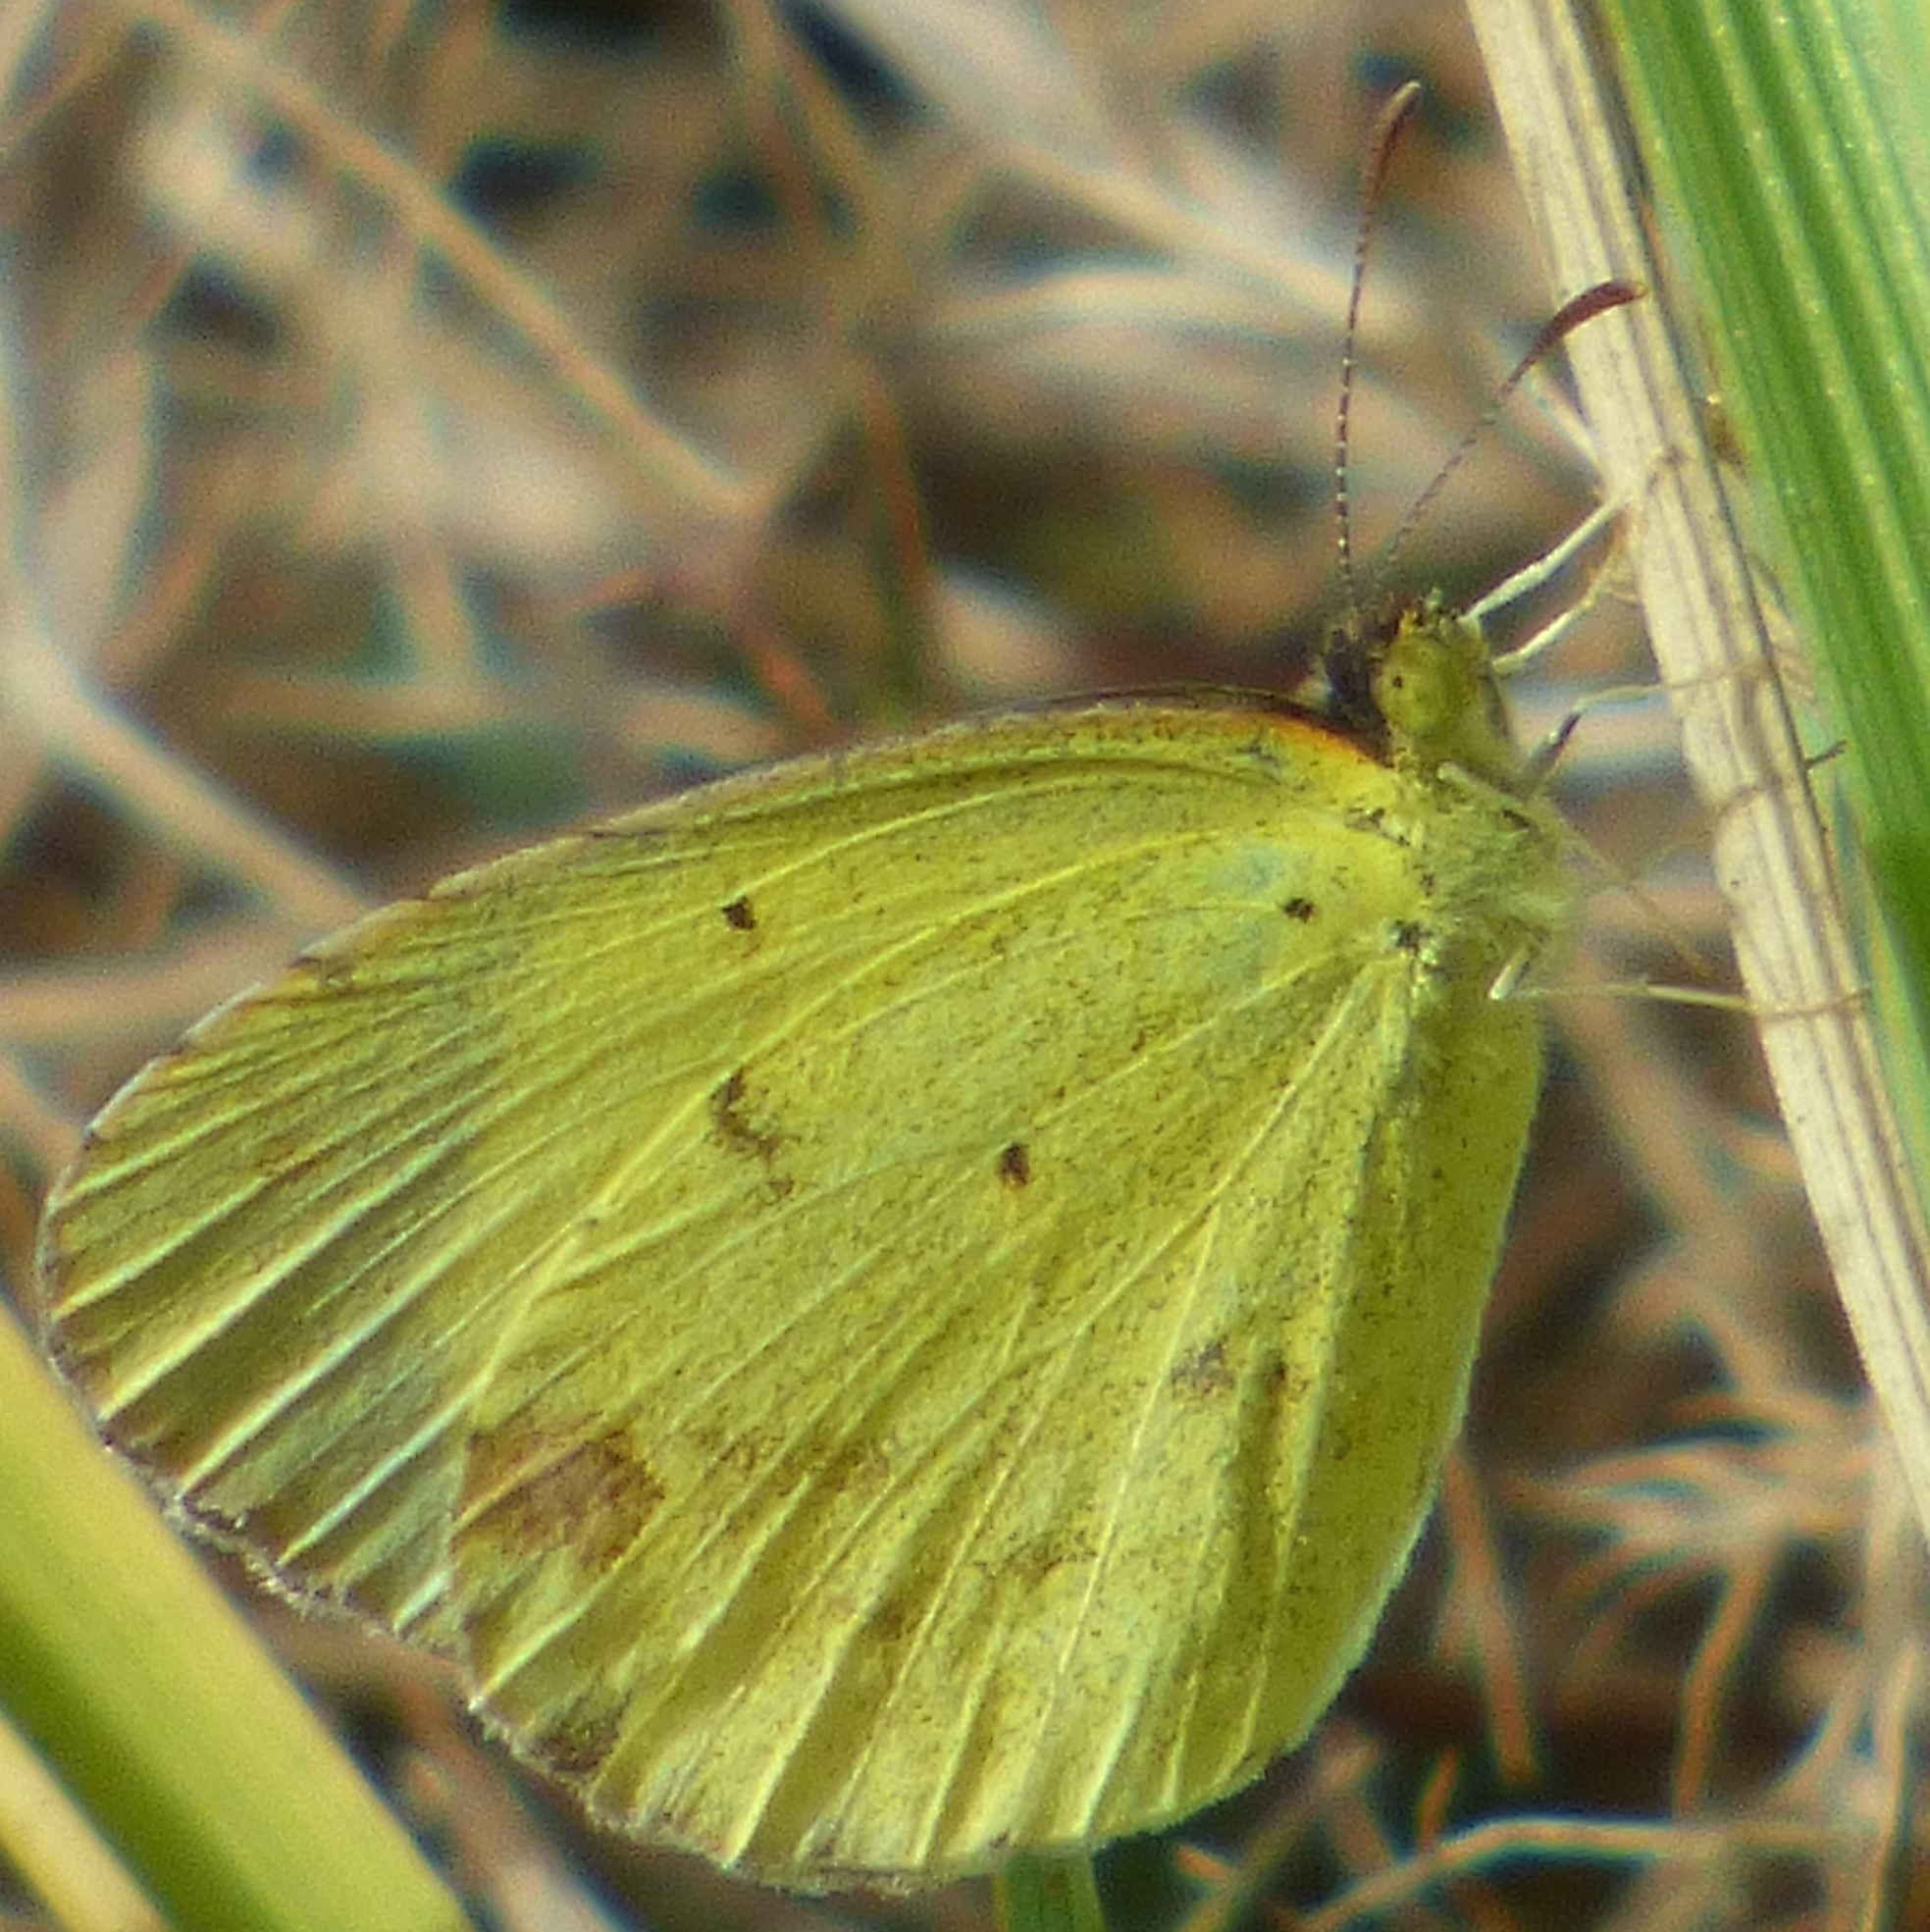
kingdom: Animalia
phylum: Arthropoda
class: Insecta
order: Lepidoptera
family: Pieridae
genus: Pyrisitia
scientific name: Pyrisitia lisa
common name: Little yellow
